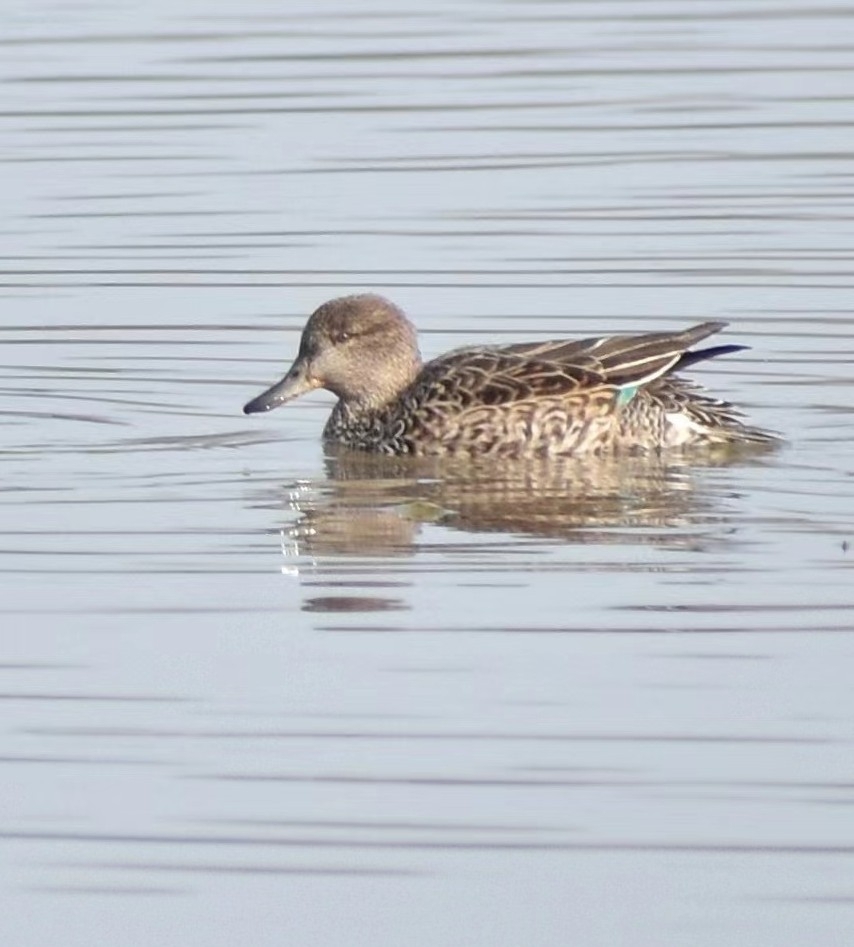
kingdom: Animalia
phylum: Chordata
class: Aves
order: Anseriformes
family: Anatidae
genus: Anas
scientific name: Anas crecca
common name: Eurasian teal
